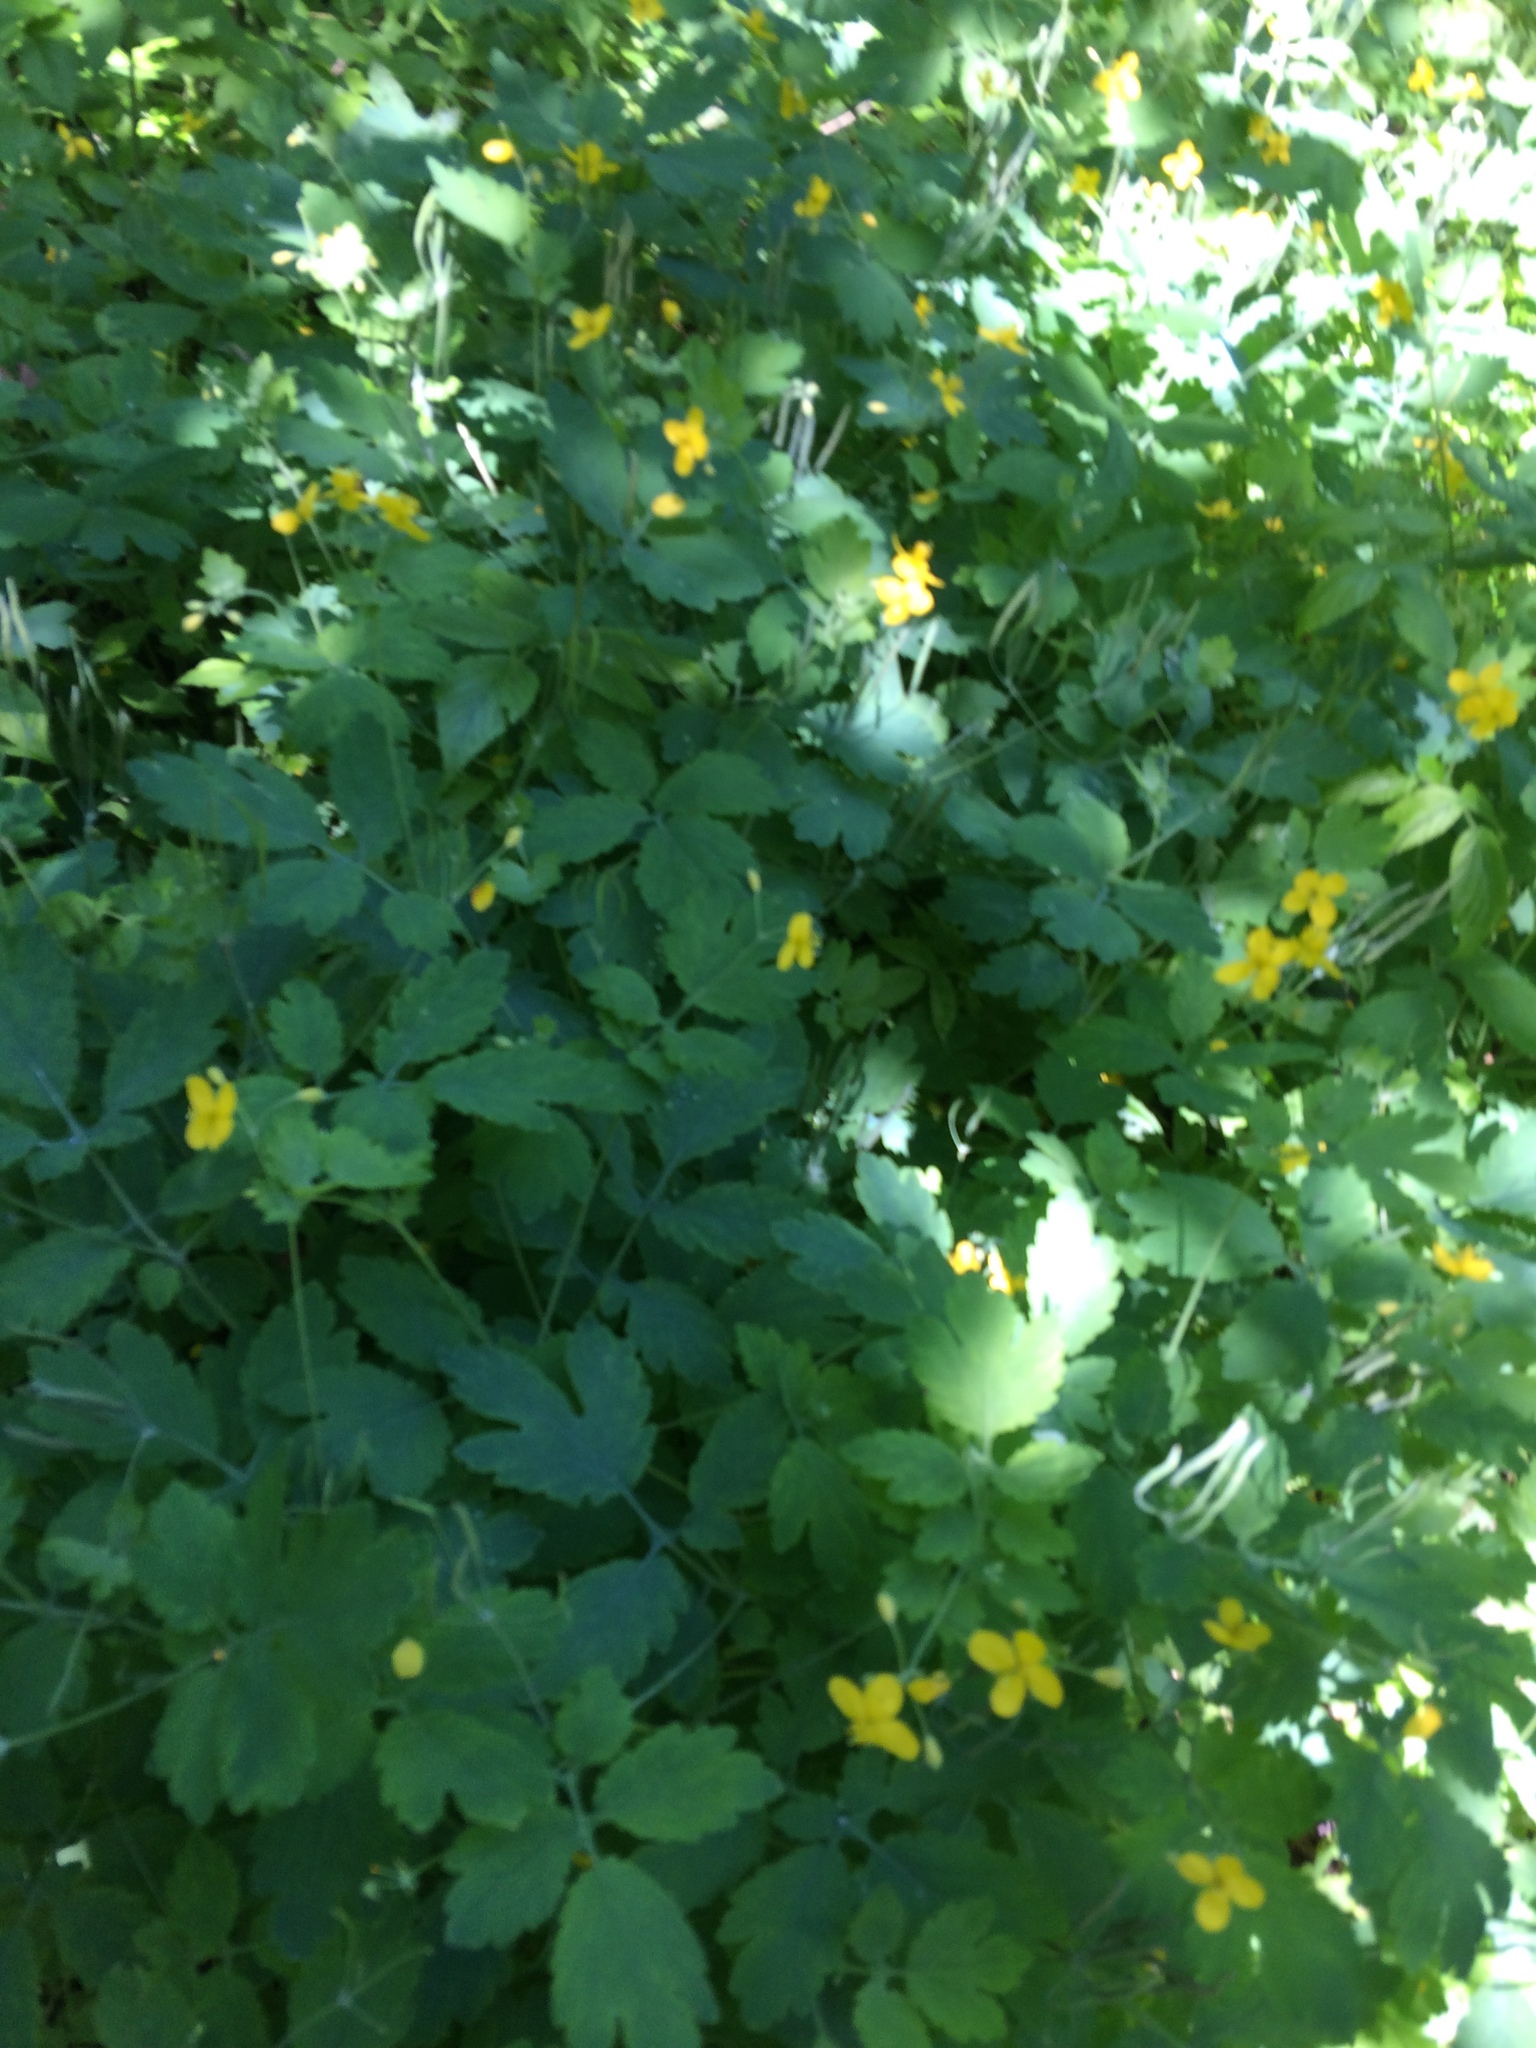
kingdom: Plantae
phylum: Tracheophyta
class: Magnoliopsida
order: Ranunculales
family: Papaveraceae
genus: Chelidonium
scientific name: Chelidonium majus
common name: Greater celandine
